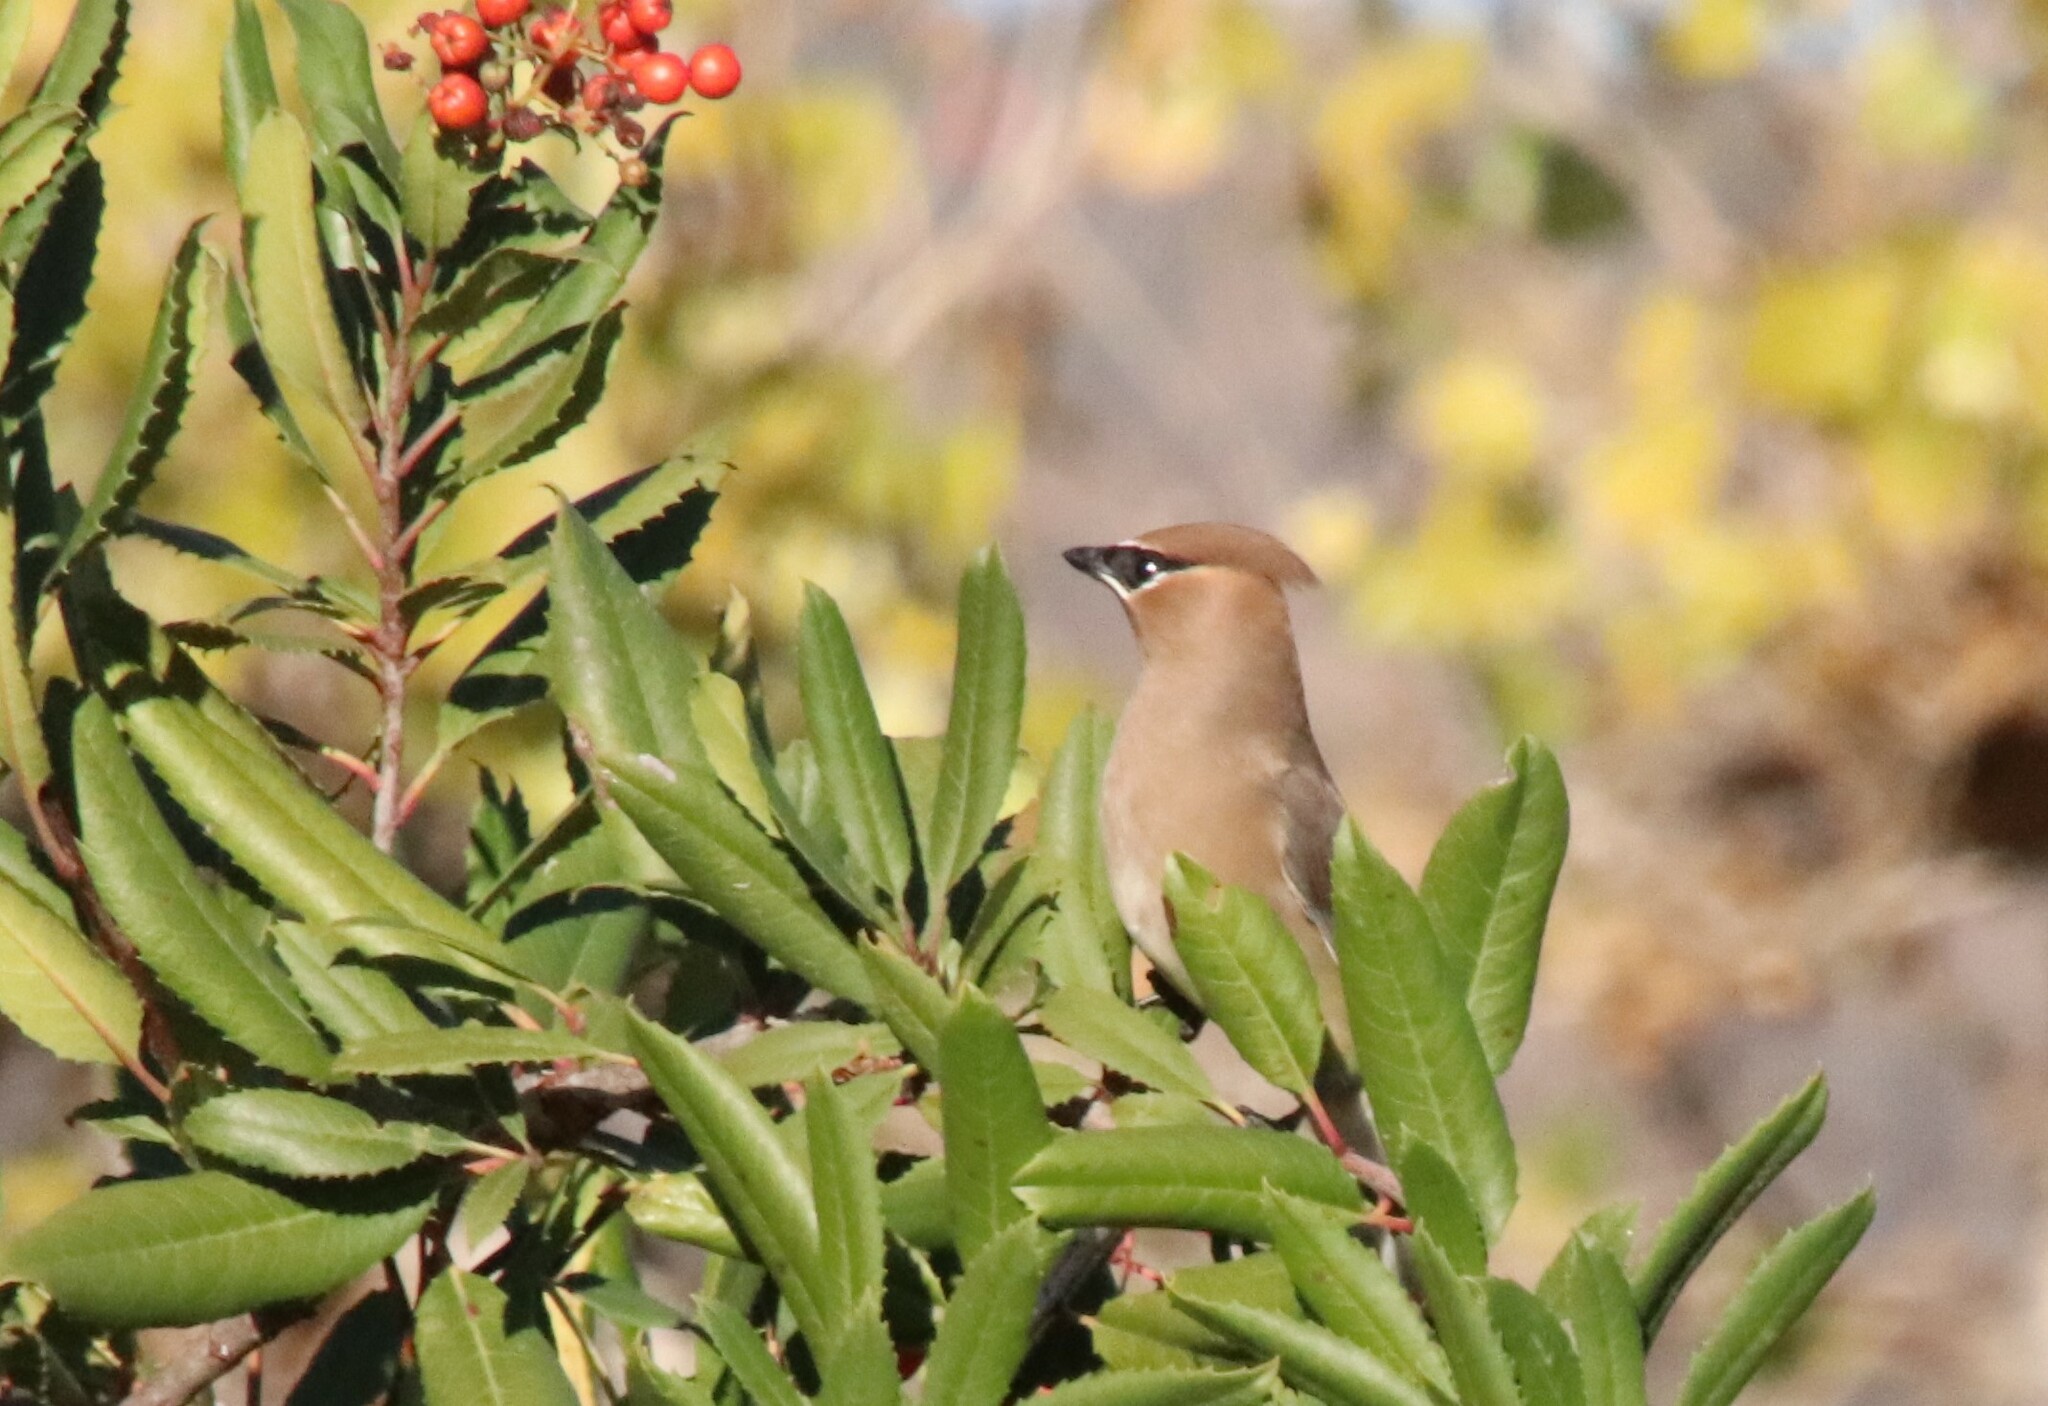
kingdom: Animalia
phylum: Chordata
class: Aves
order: Passeriformes
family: Bombycillidae
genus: Bombycilla
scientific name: Bombycilla cedrorum
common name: Cedar waxwing
